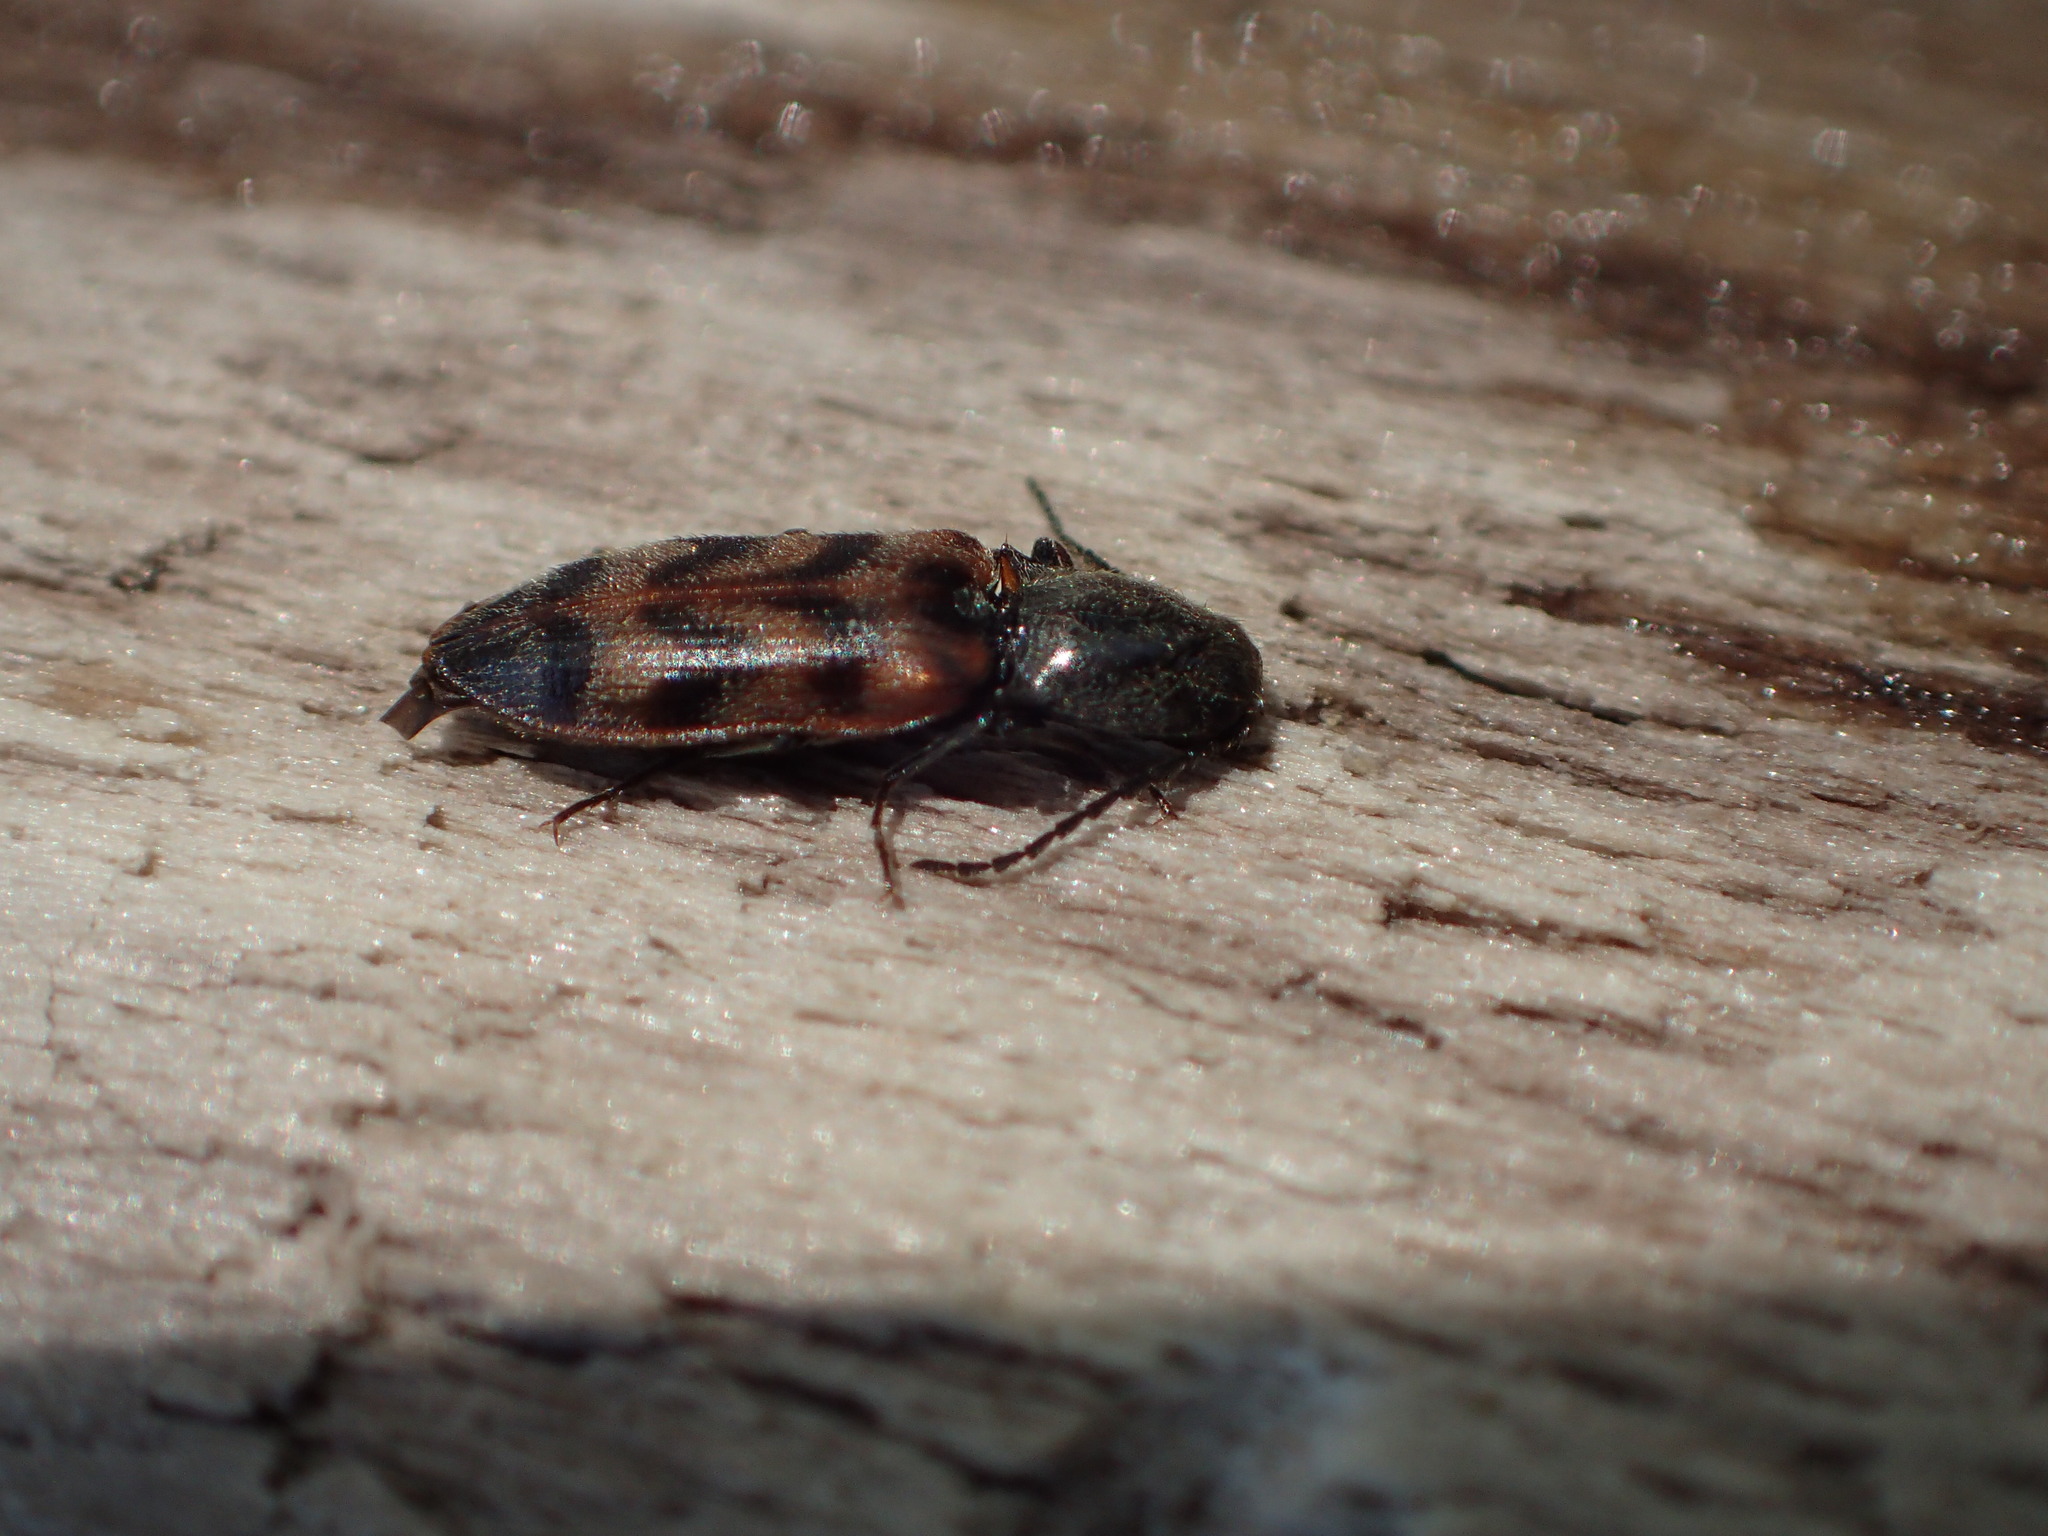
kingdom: Animalia
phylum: Arthropoda
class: Insecta
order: Coleoptera
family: Elateridae
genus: Pseudanostirus
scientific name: Pseudanostirus triundulatus
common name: Three-spotted click beetle
